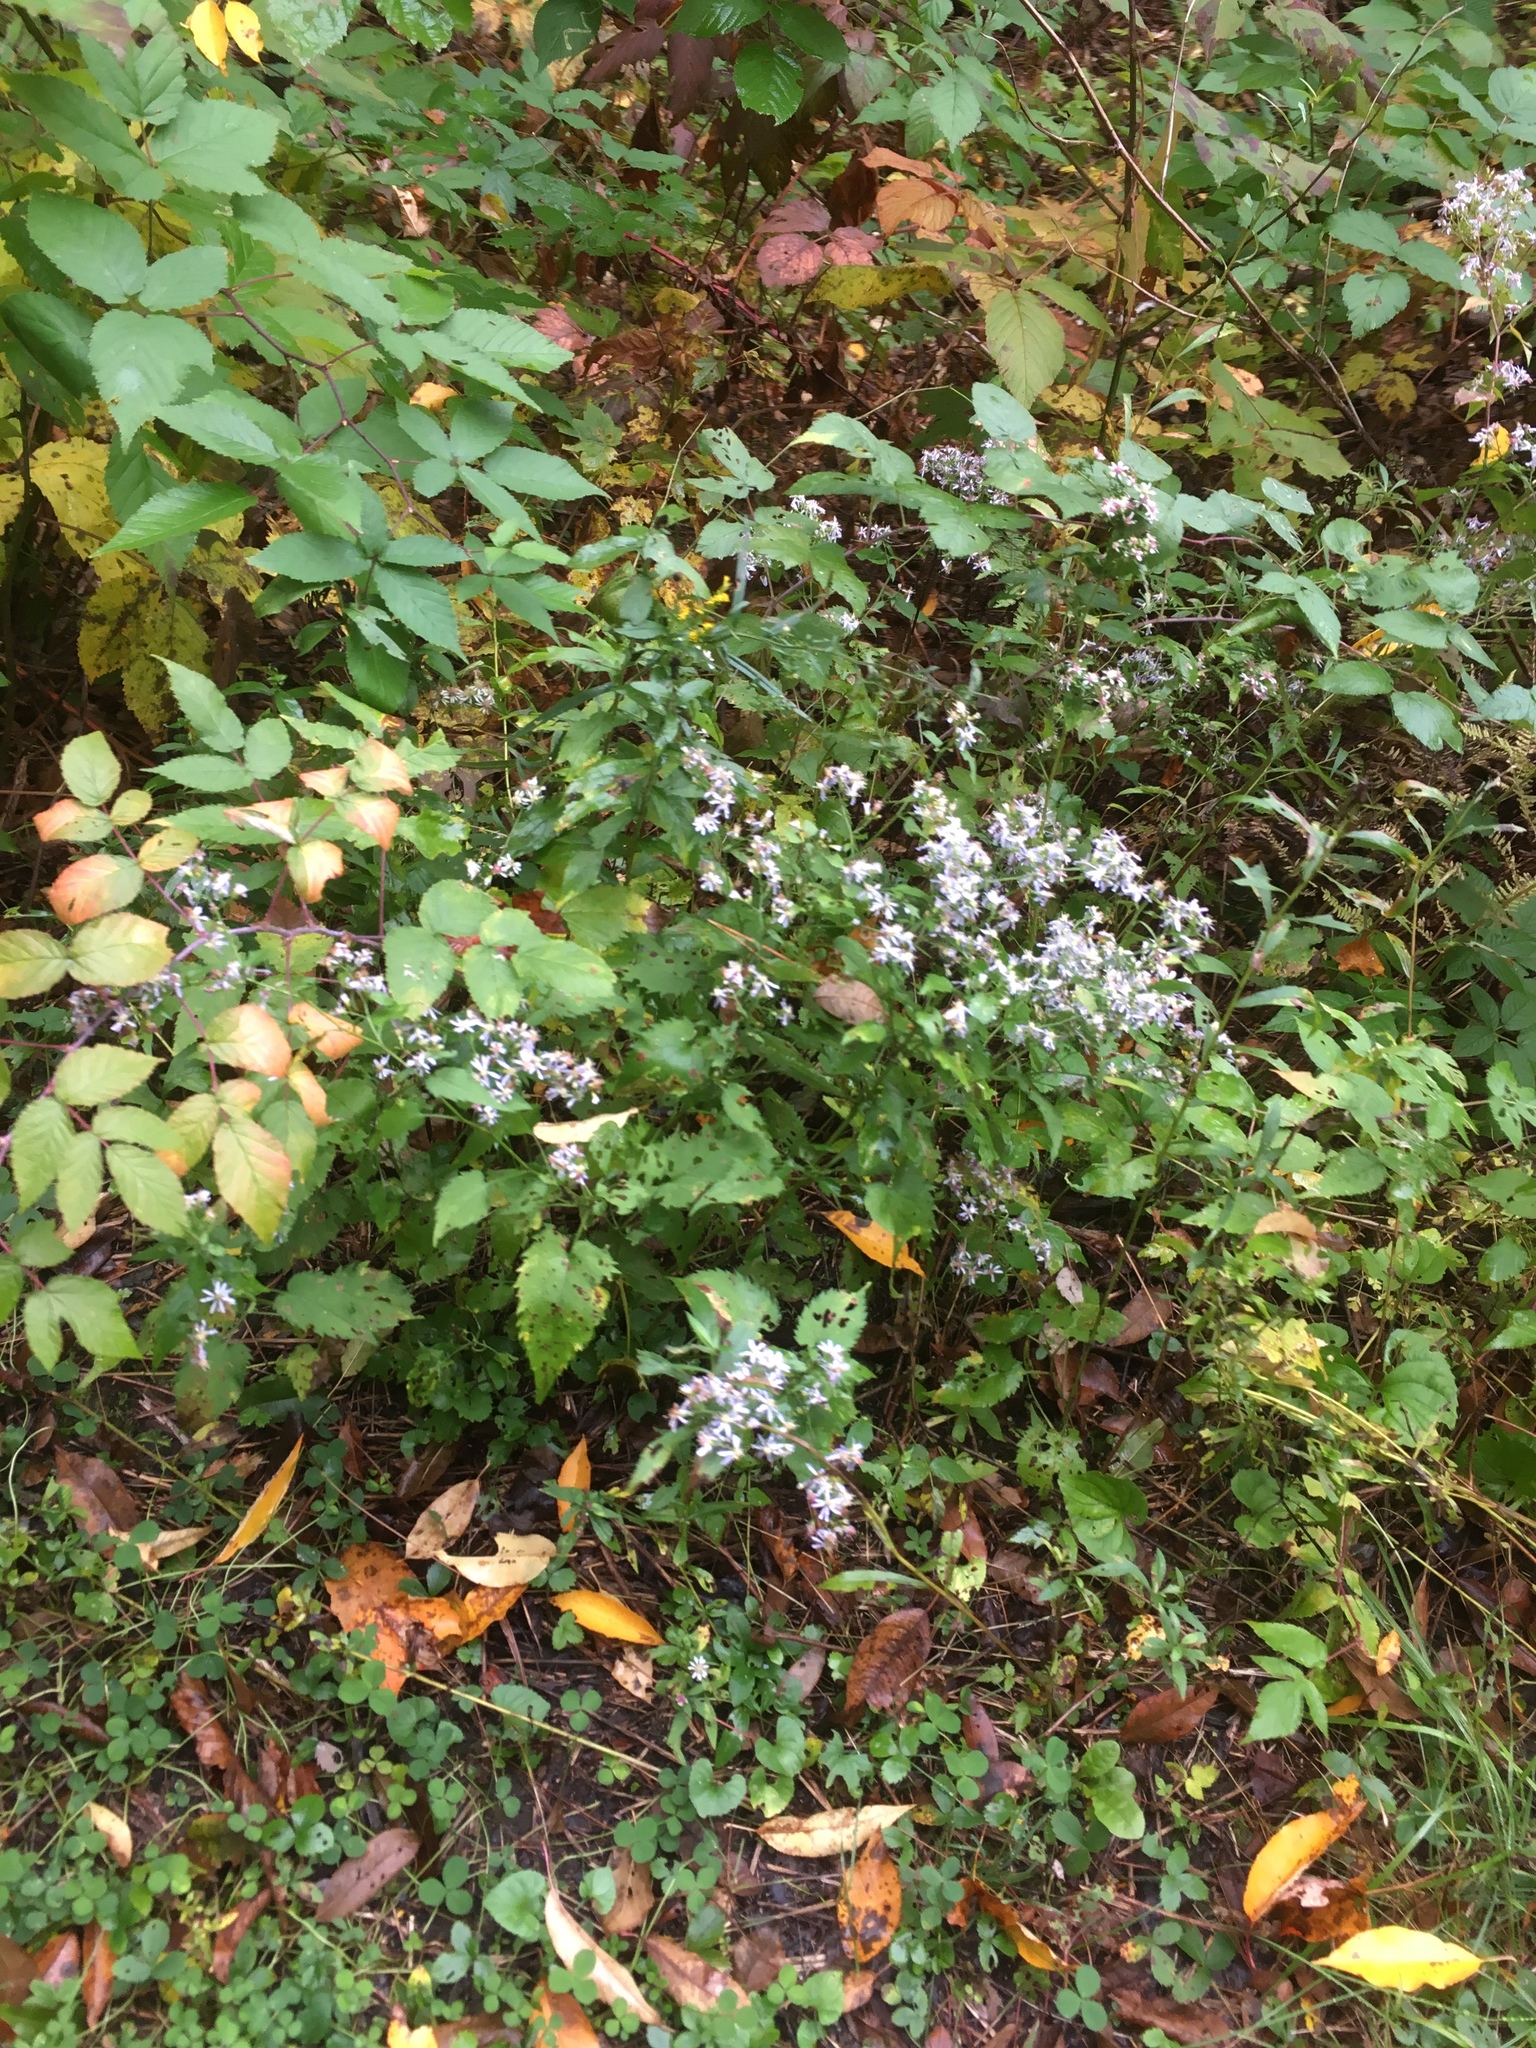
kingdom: Plantae
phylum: Tracheophyta
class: Magnoliopsida
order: Asterales
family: Asteraceae
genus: Symphyotrichum
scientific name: Symphyotrichum cordifolium
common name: Beeweed
